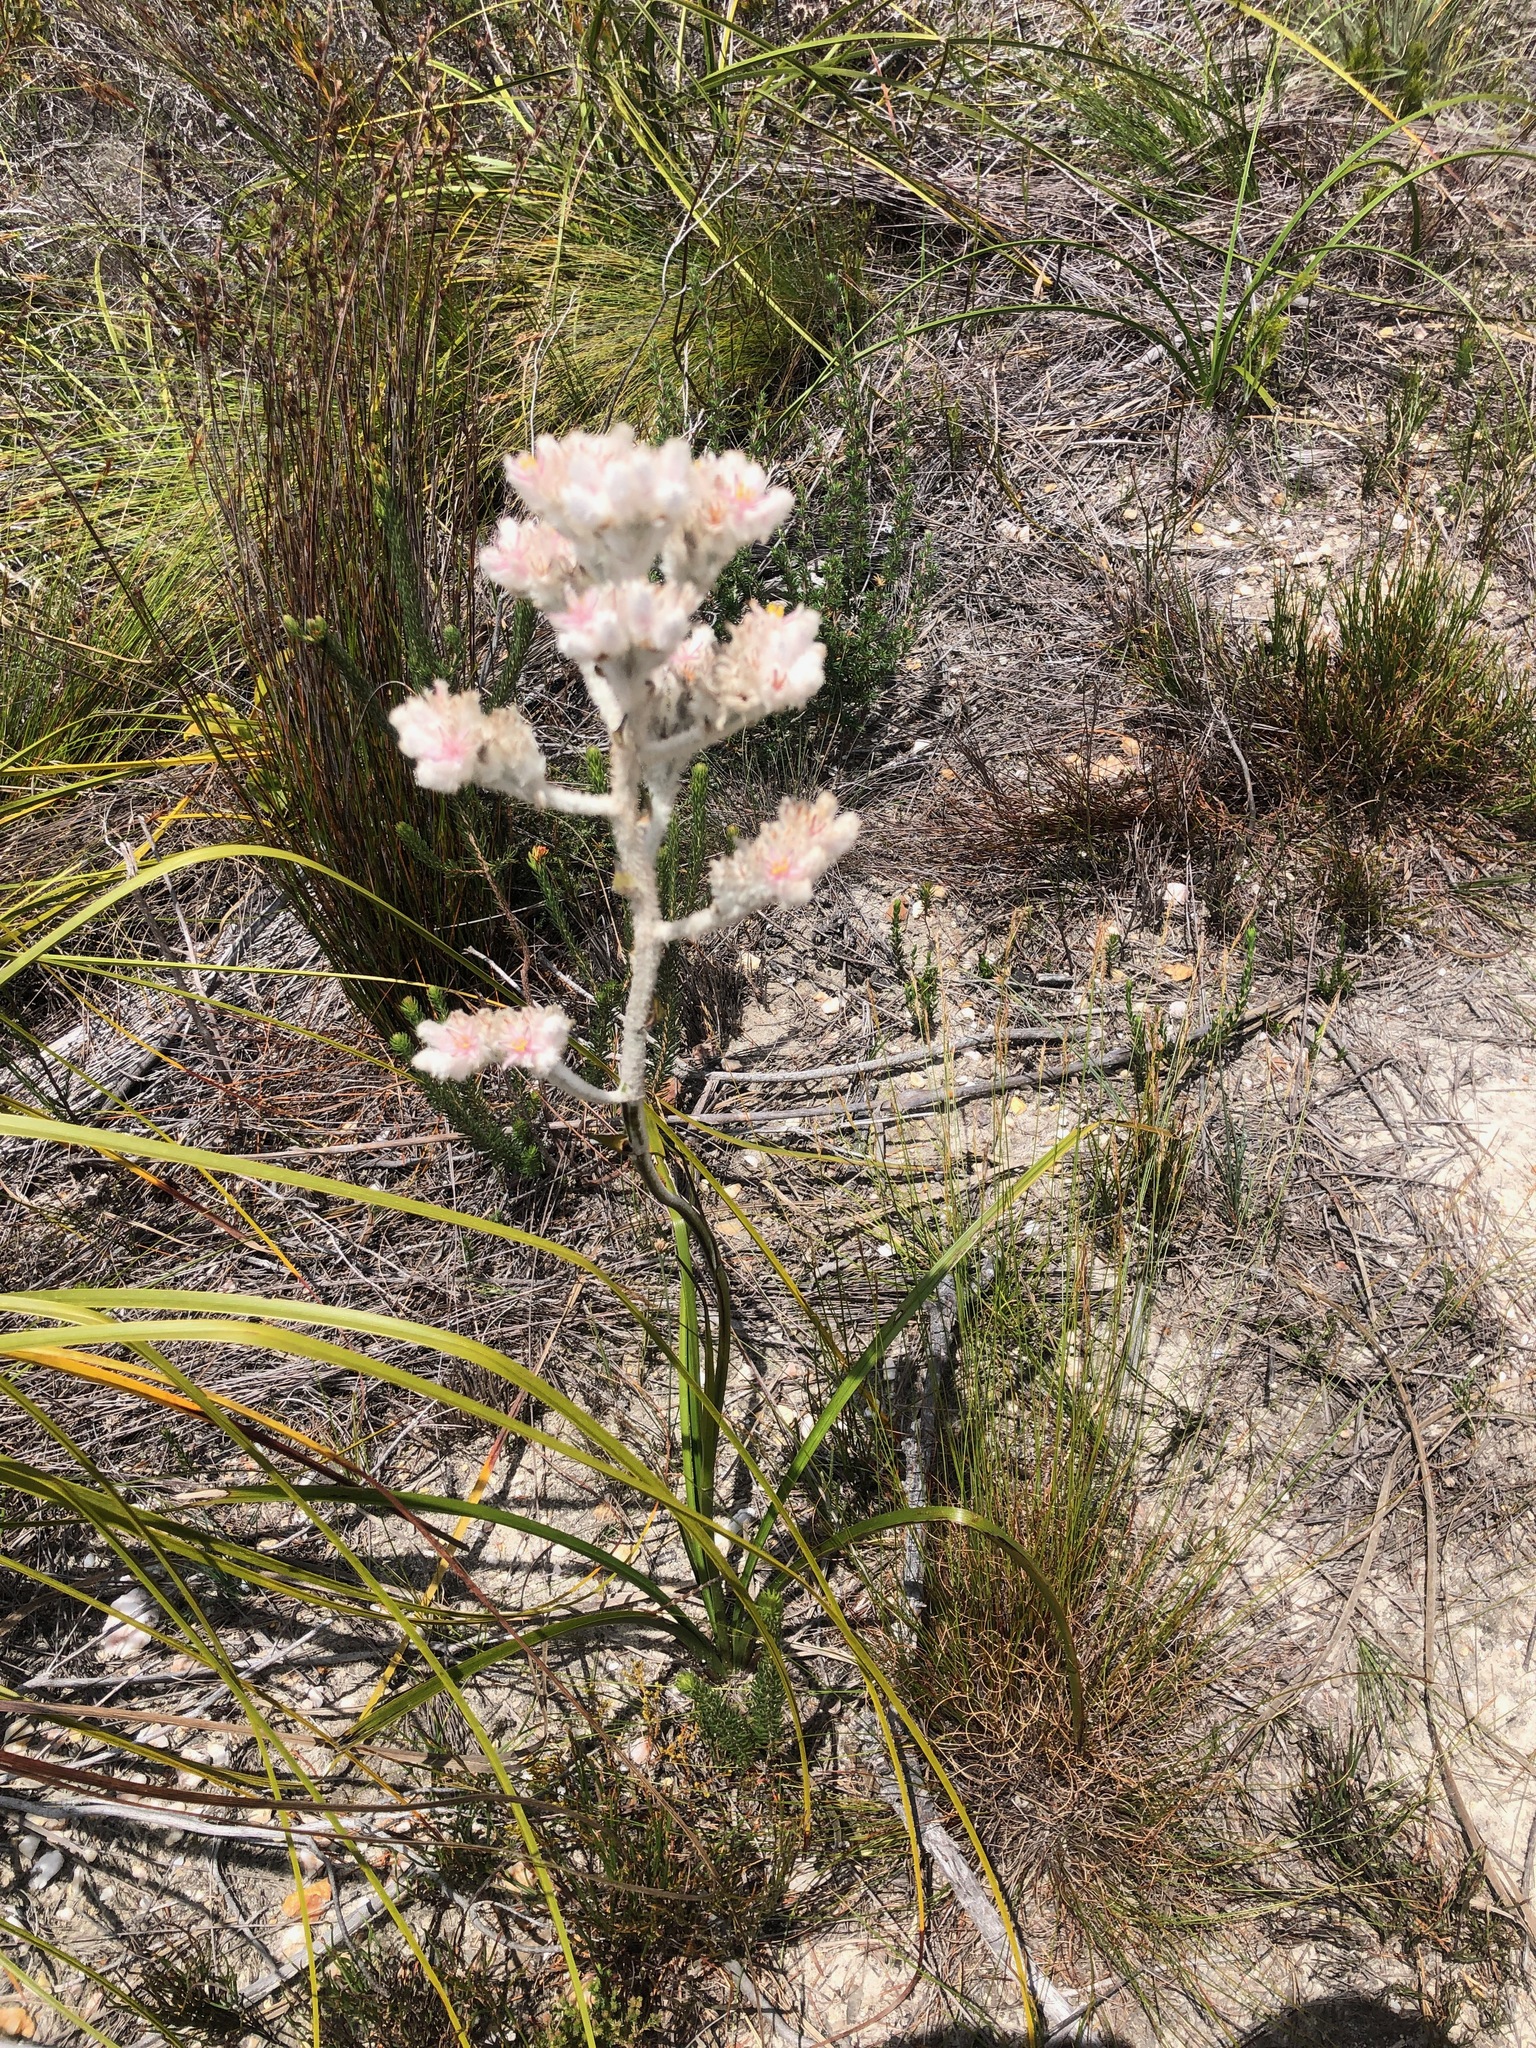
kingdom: Plantae
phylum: Tracheophyta
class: Liliopsida
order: Asparagales
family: Lanariaceae
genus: Lanaria
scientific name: Lanaria lanata
